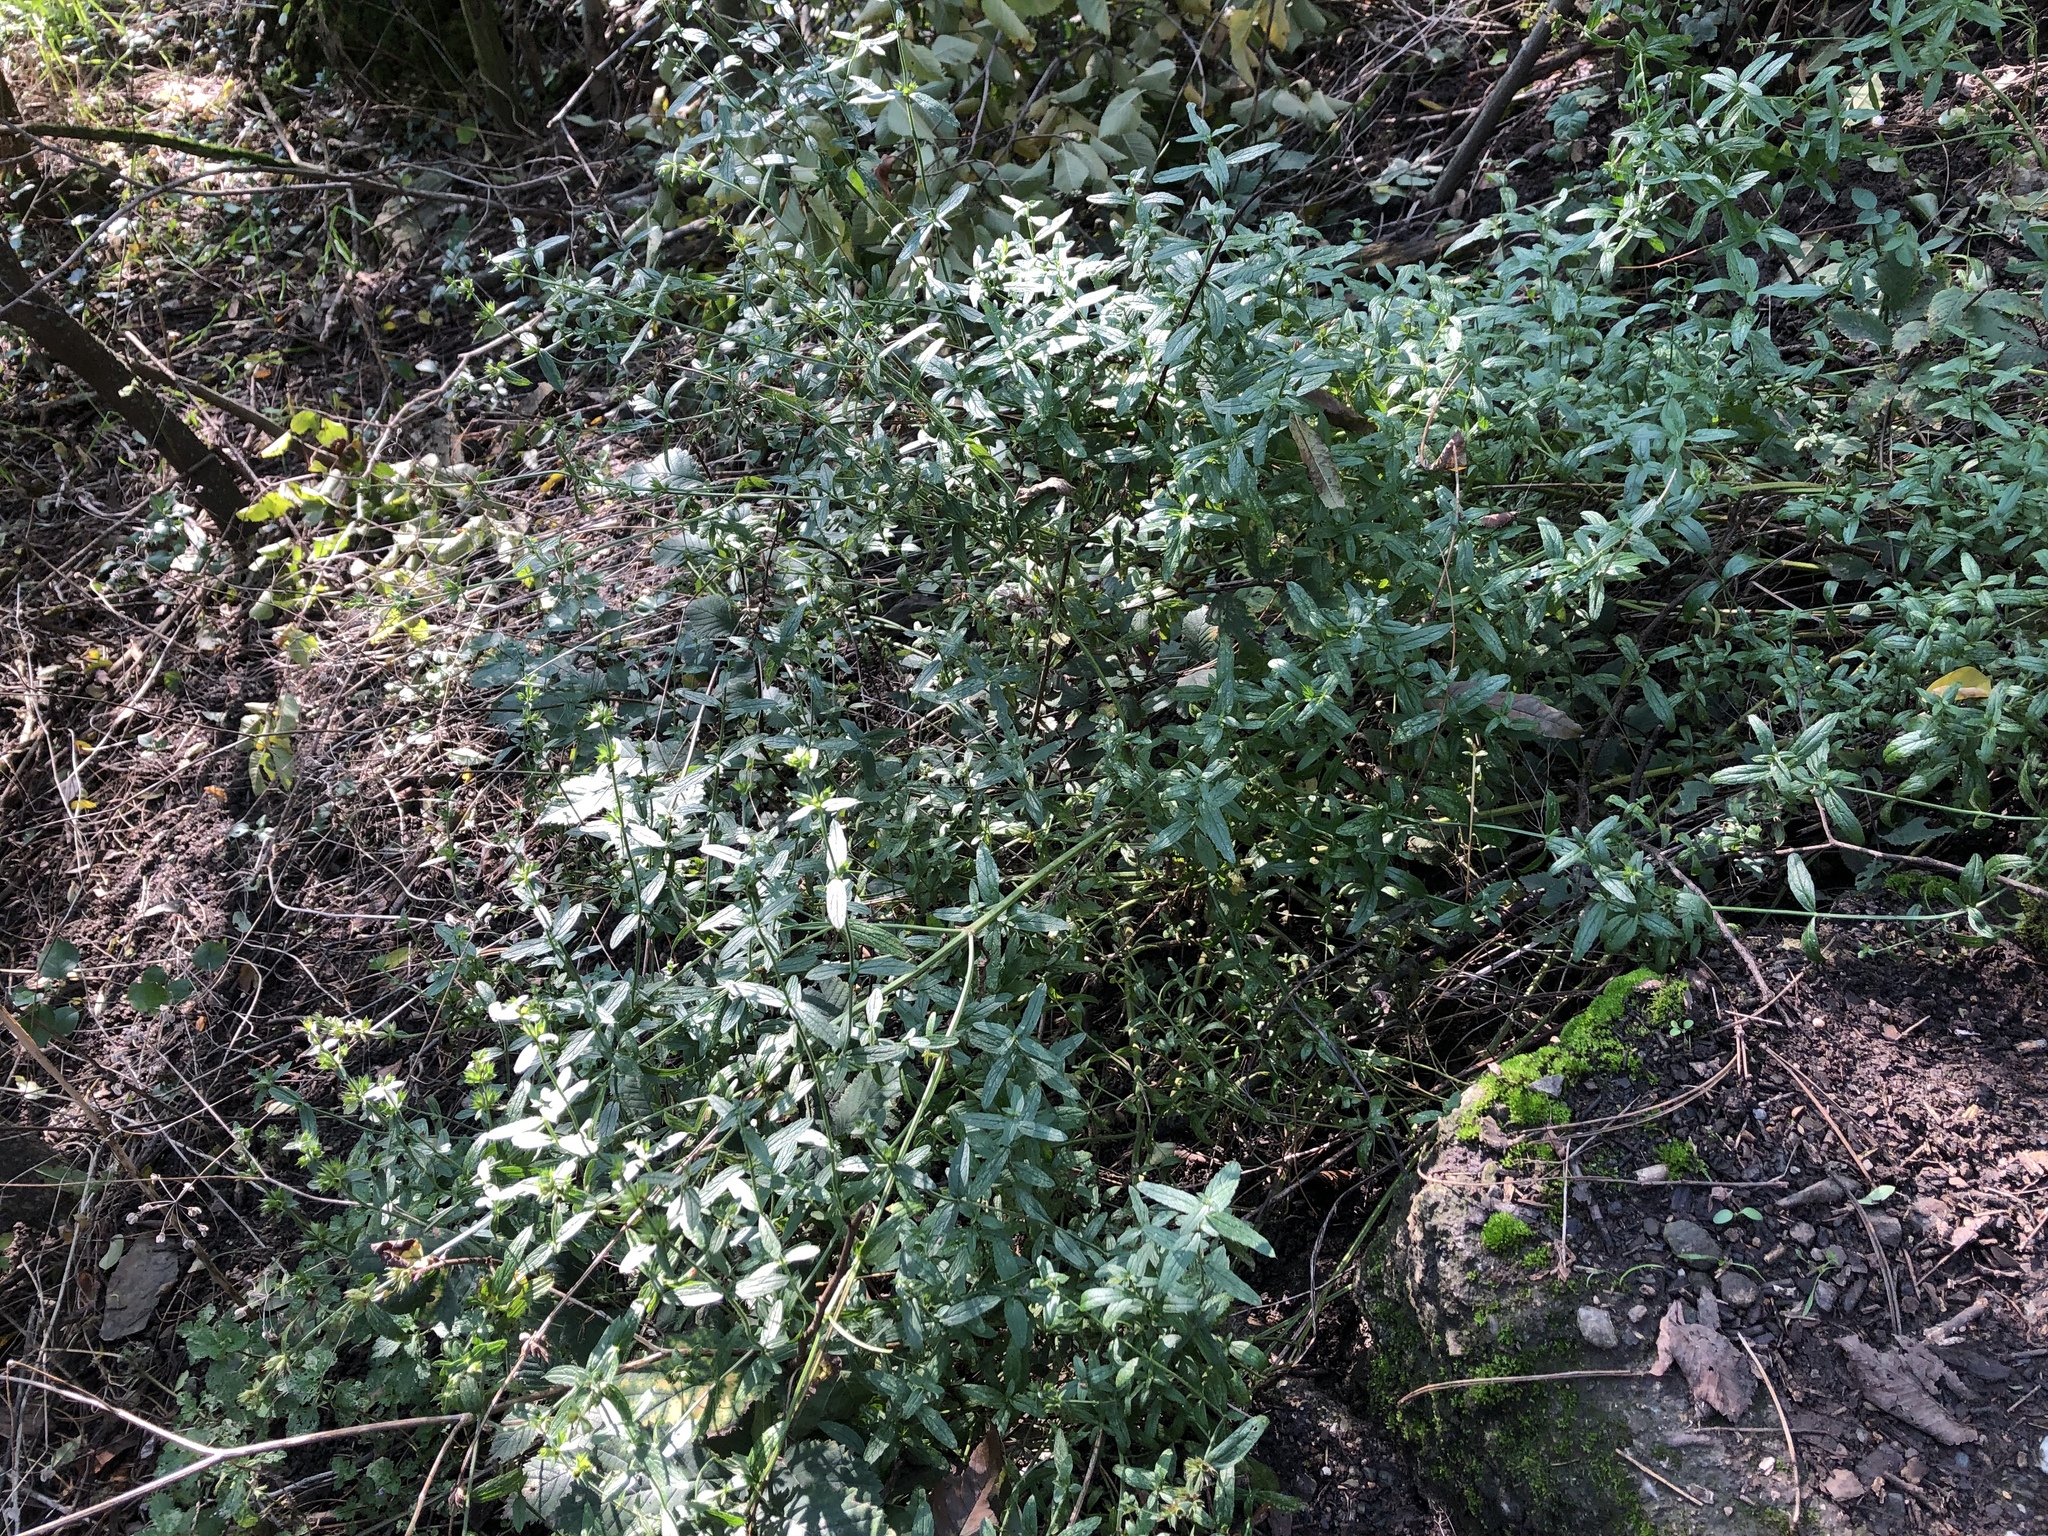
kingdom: Plantae
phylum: Tracheophyta
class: Magnoliopsida
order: Lamiales
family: Lamiaceae
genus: Stachys
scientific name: Stachys recta
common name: Perennial yellow-woundwort
